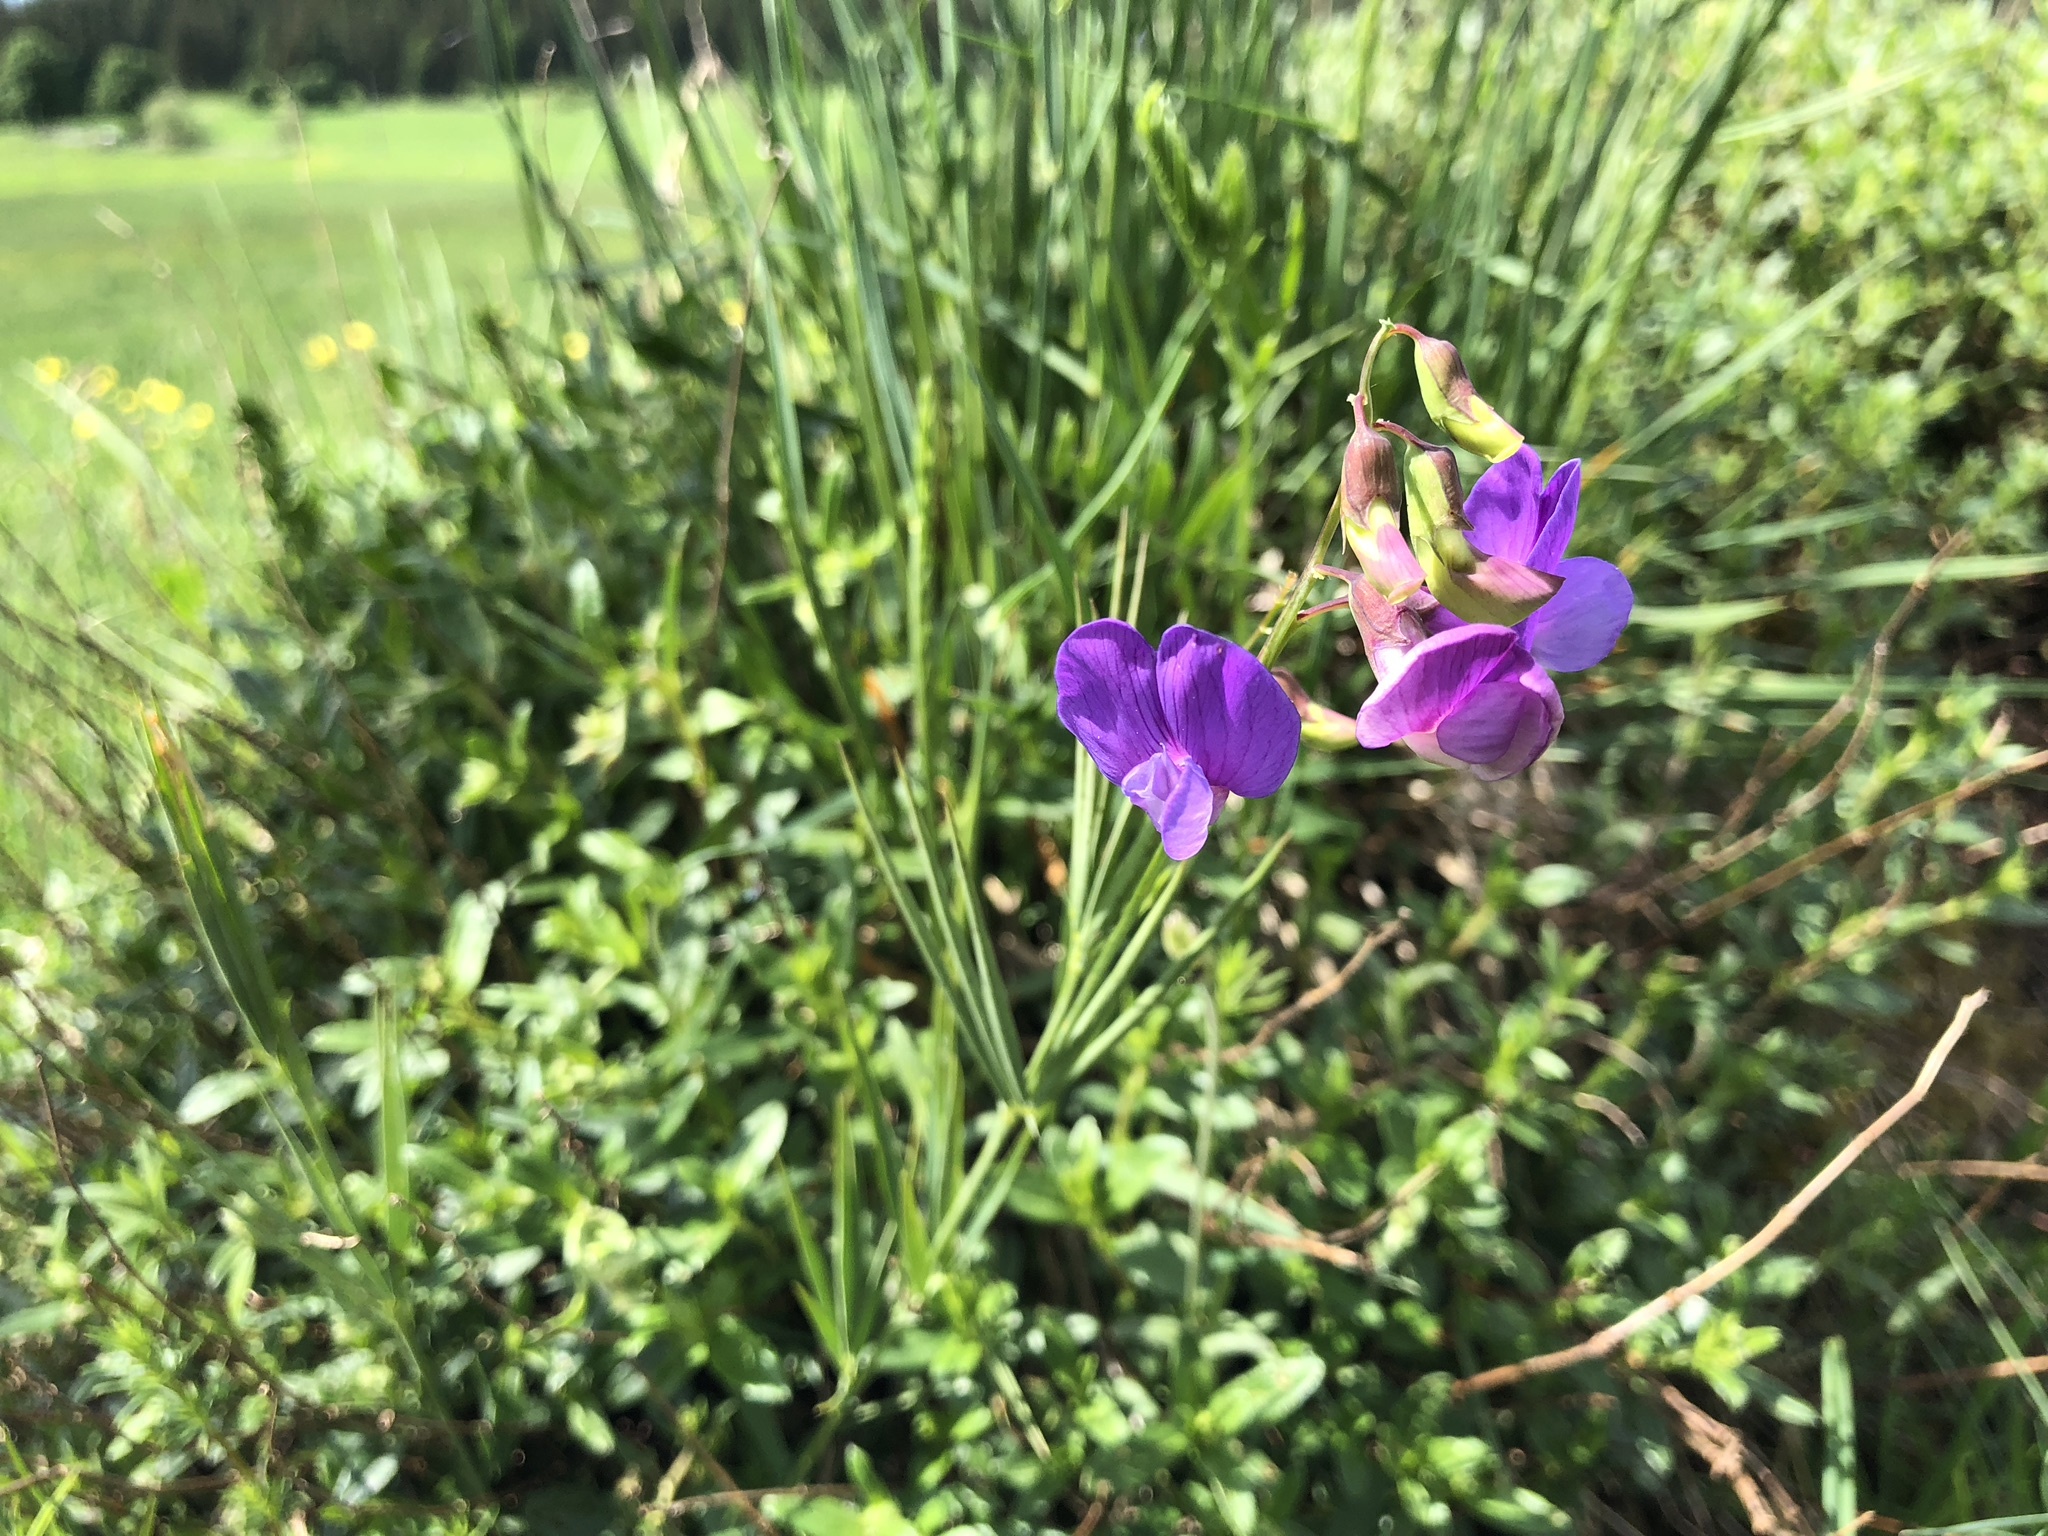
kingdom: Plantae
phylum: Tracheophyta
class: Magnoliopsida
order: Fabales
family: Fabaceae
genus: Lathyrus
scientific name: Lathyrus bauhini
